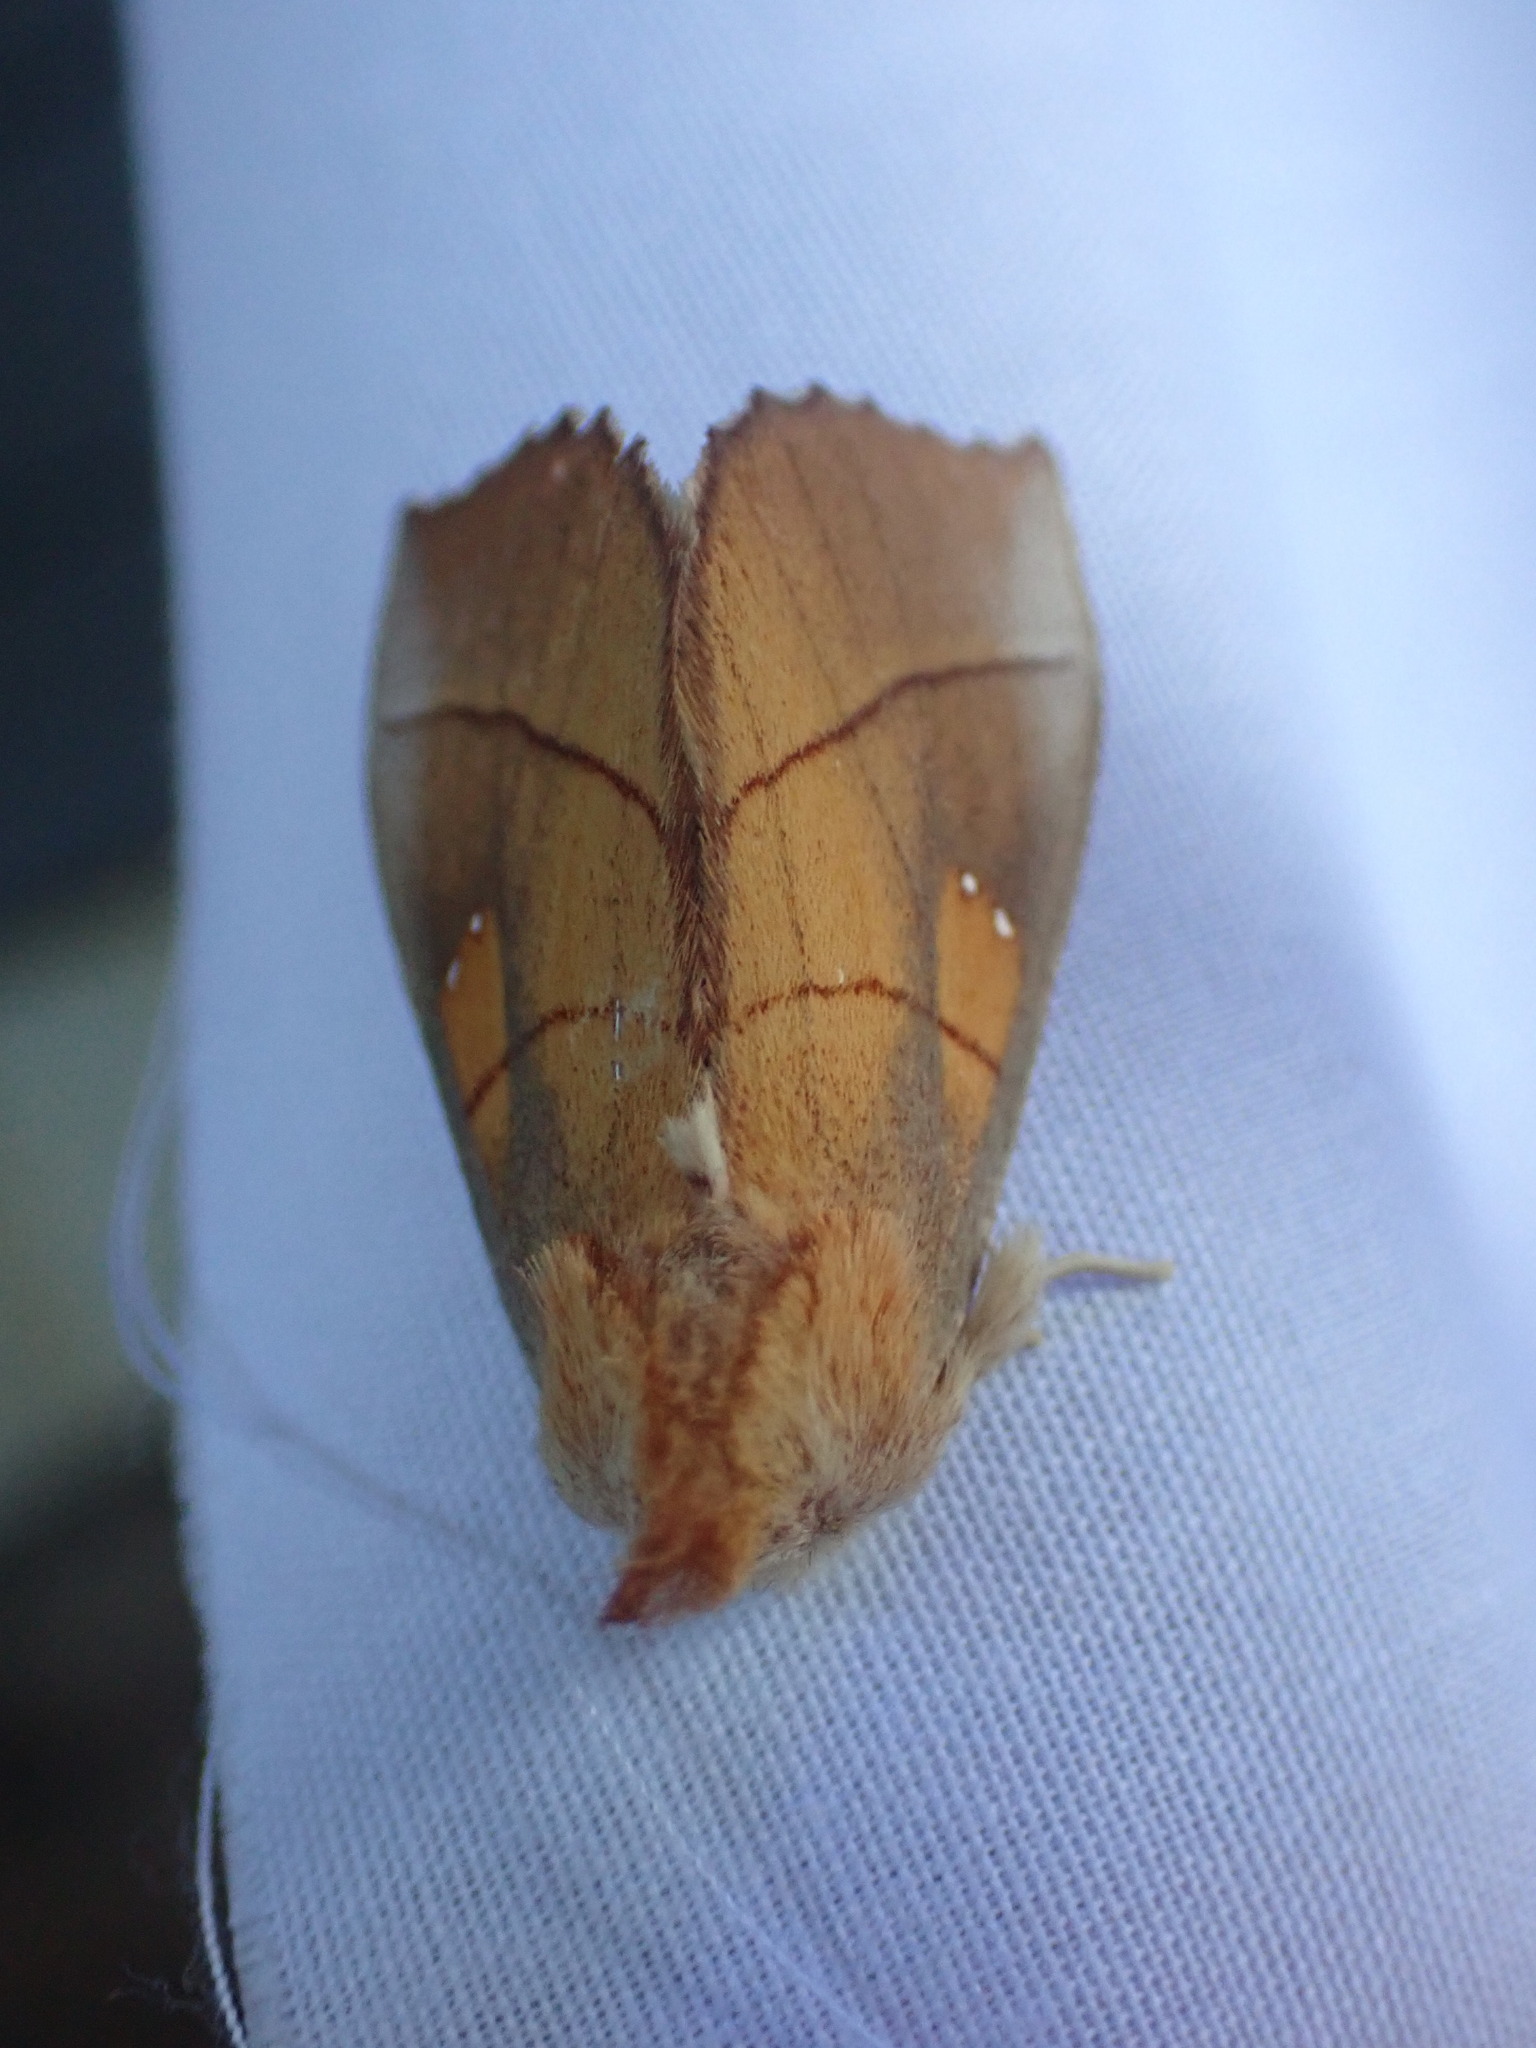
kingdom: Animalia
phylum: Arthropoda
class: Insecta
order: Lepidoptera
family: Notodontidae
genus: Nadata
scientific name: Nadata gibbosa
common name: White-dotted prominent
